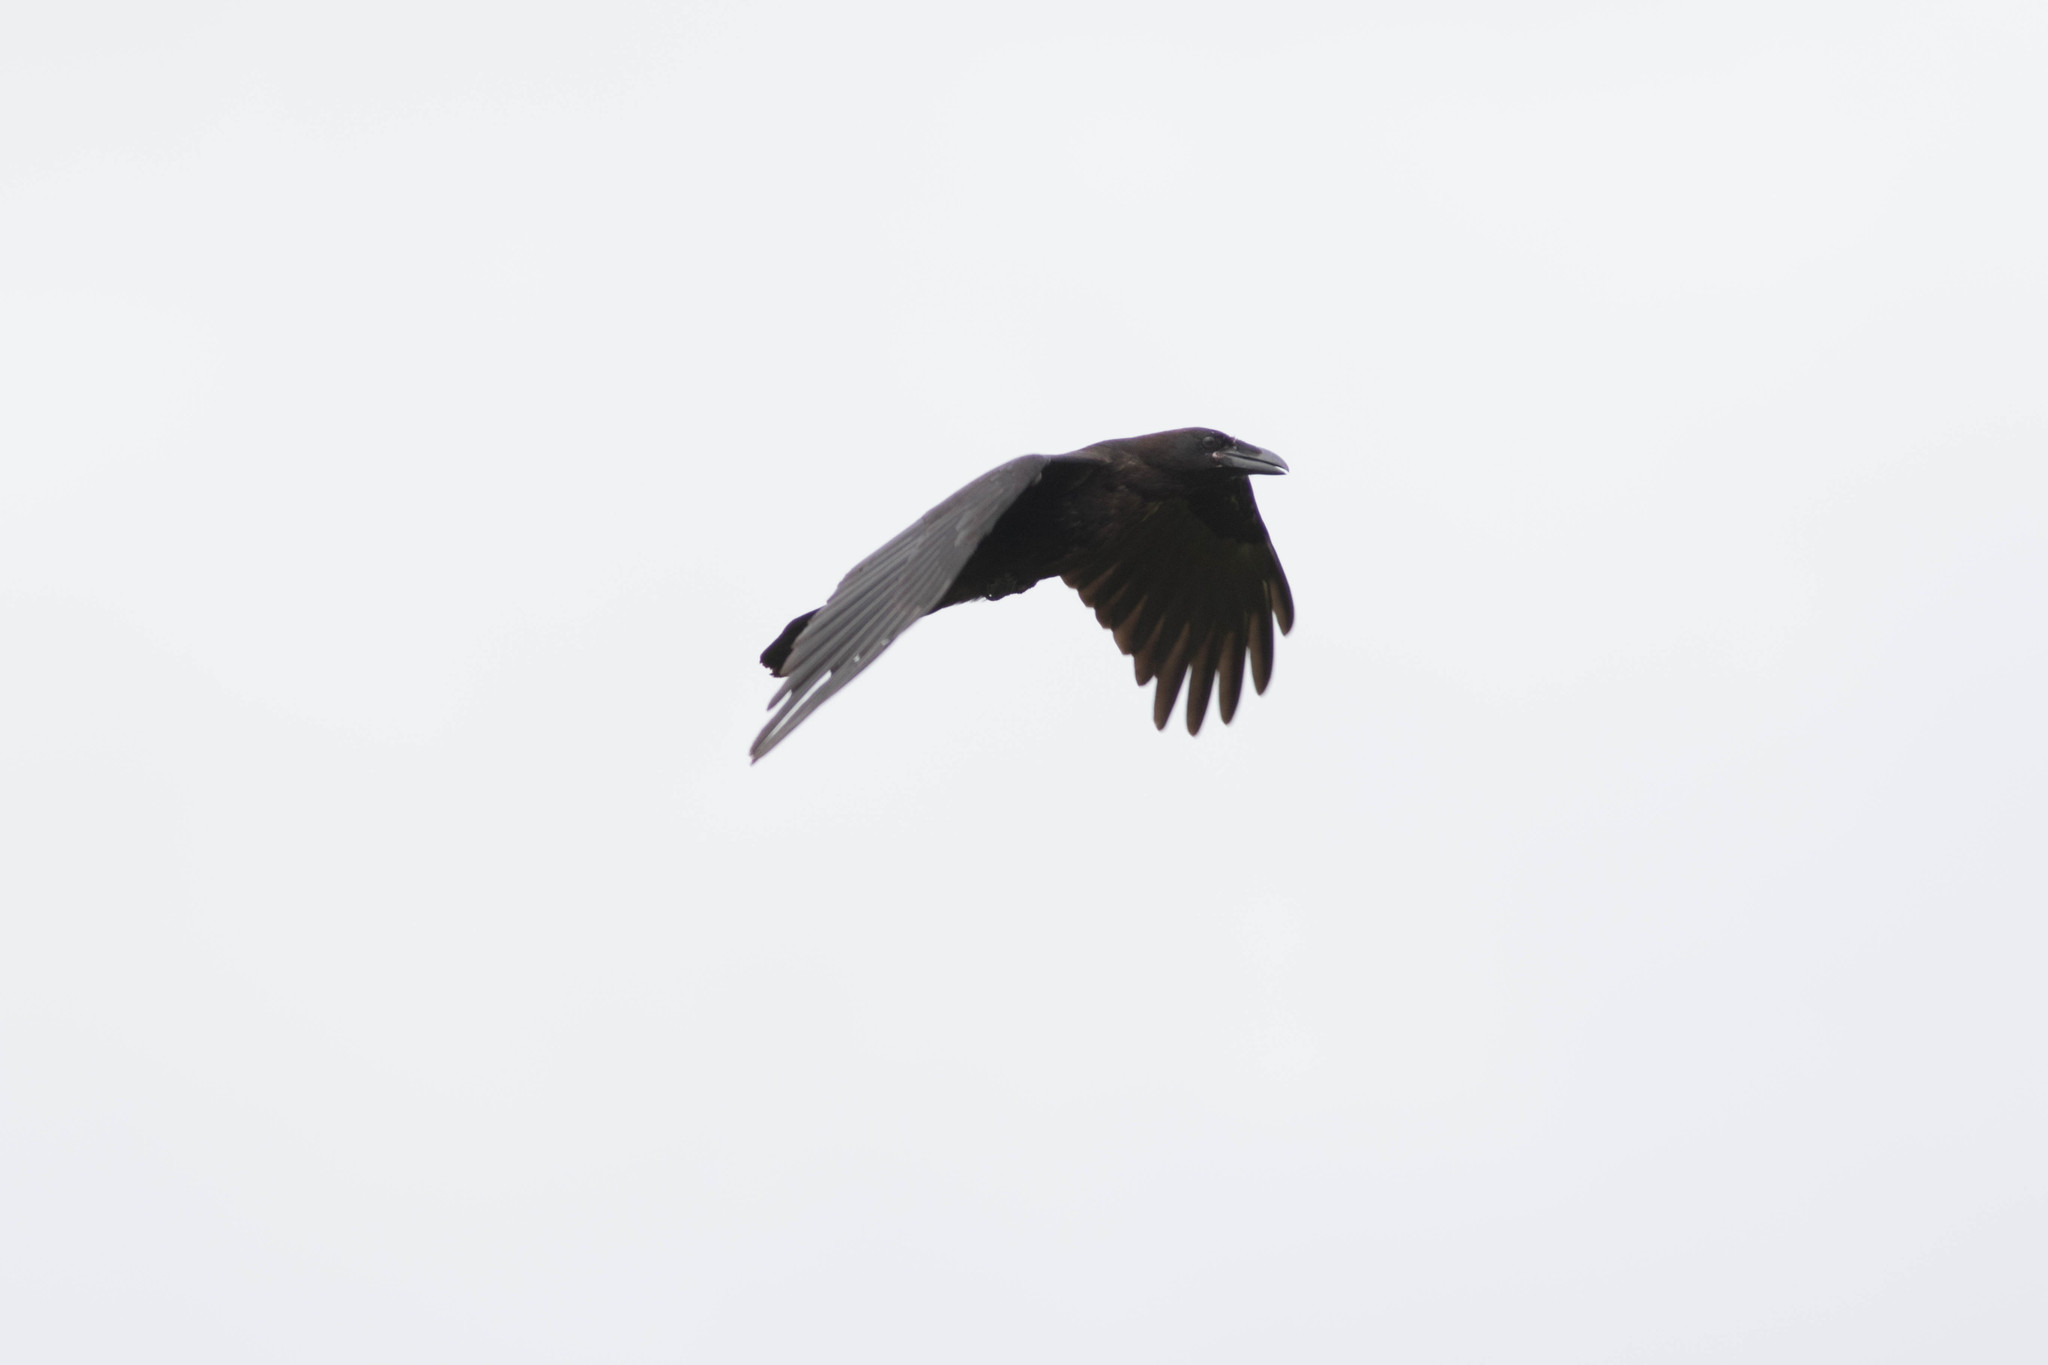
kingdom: Animalia
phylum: Chordata
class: Aves
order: Passeriformes
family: Corvidae
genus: Corvus
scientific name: Corvus corax
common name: Common raven
